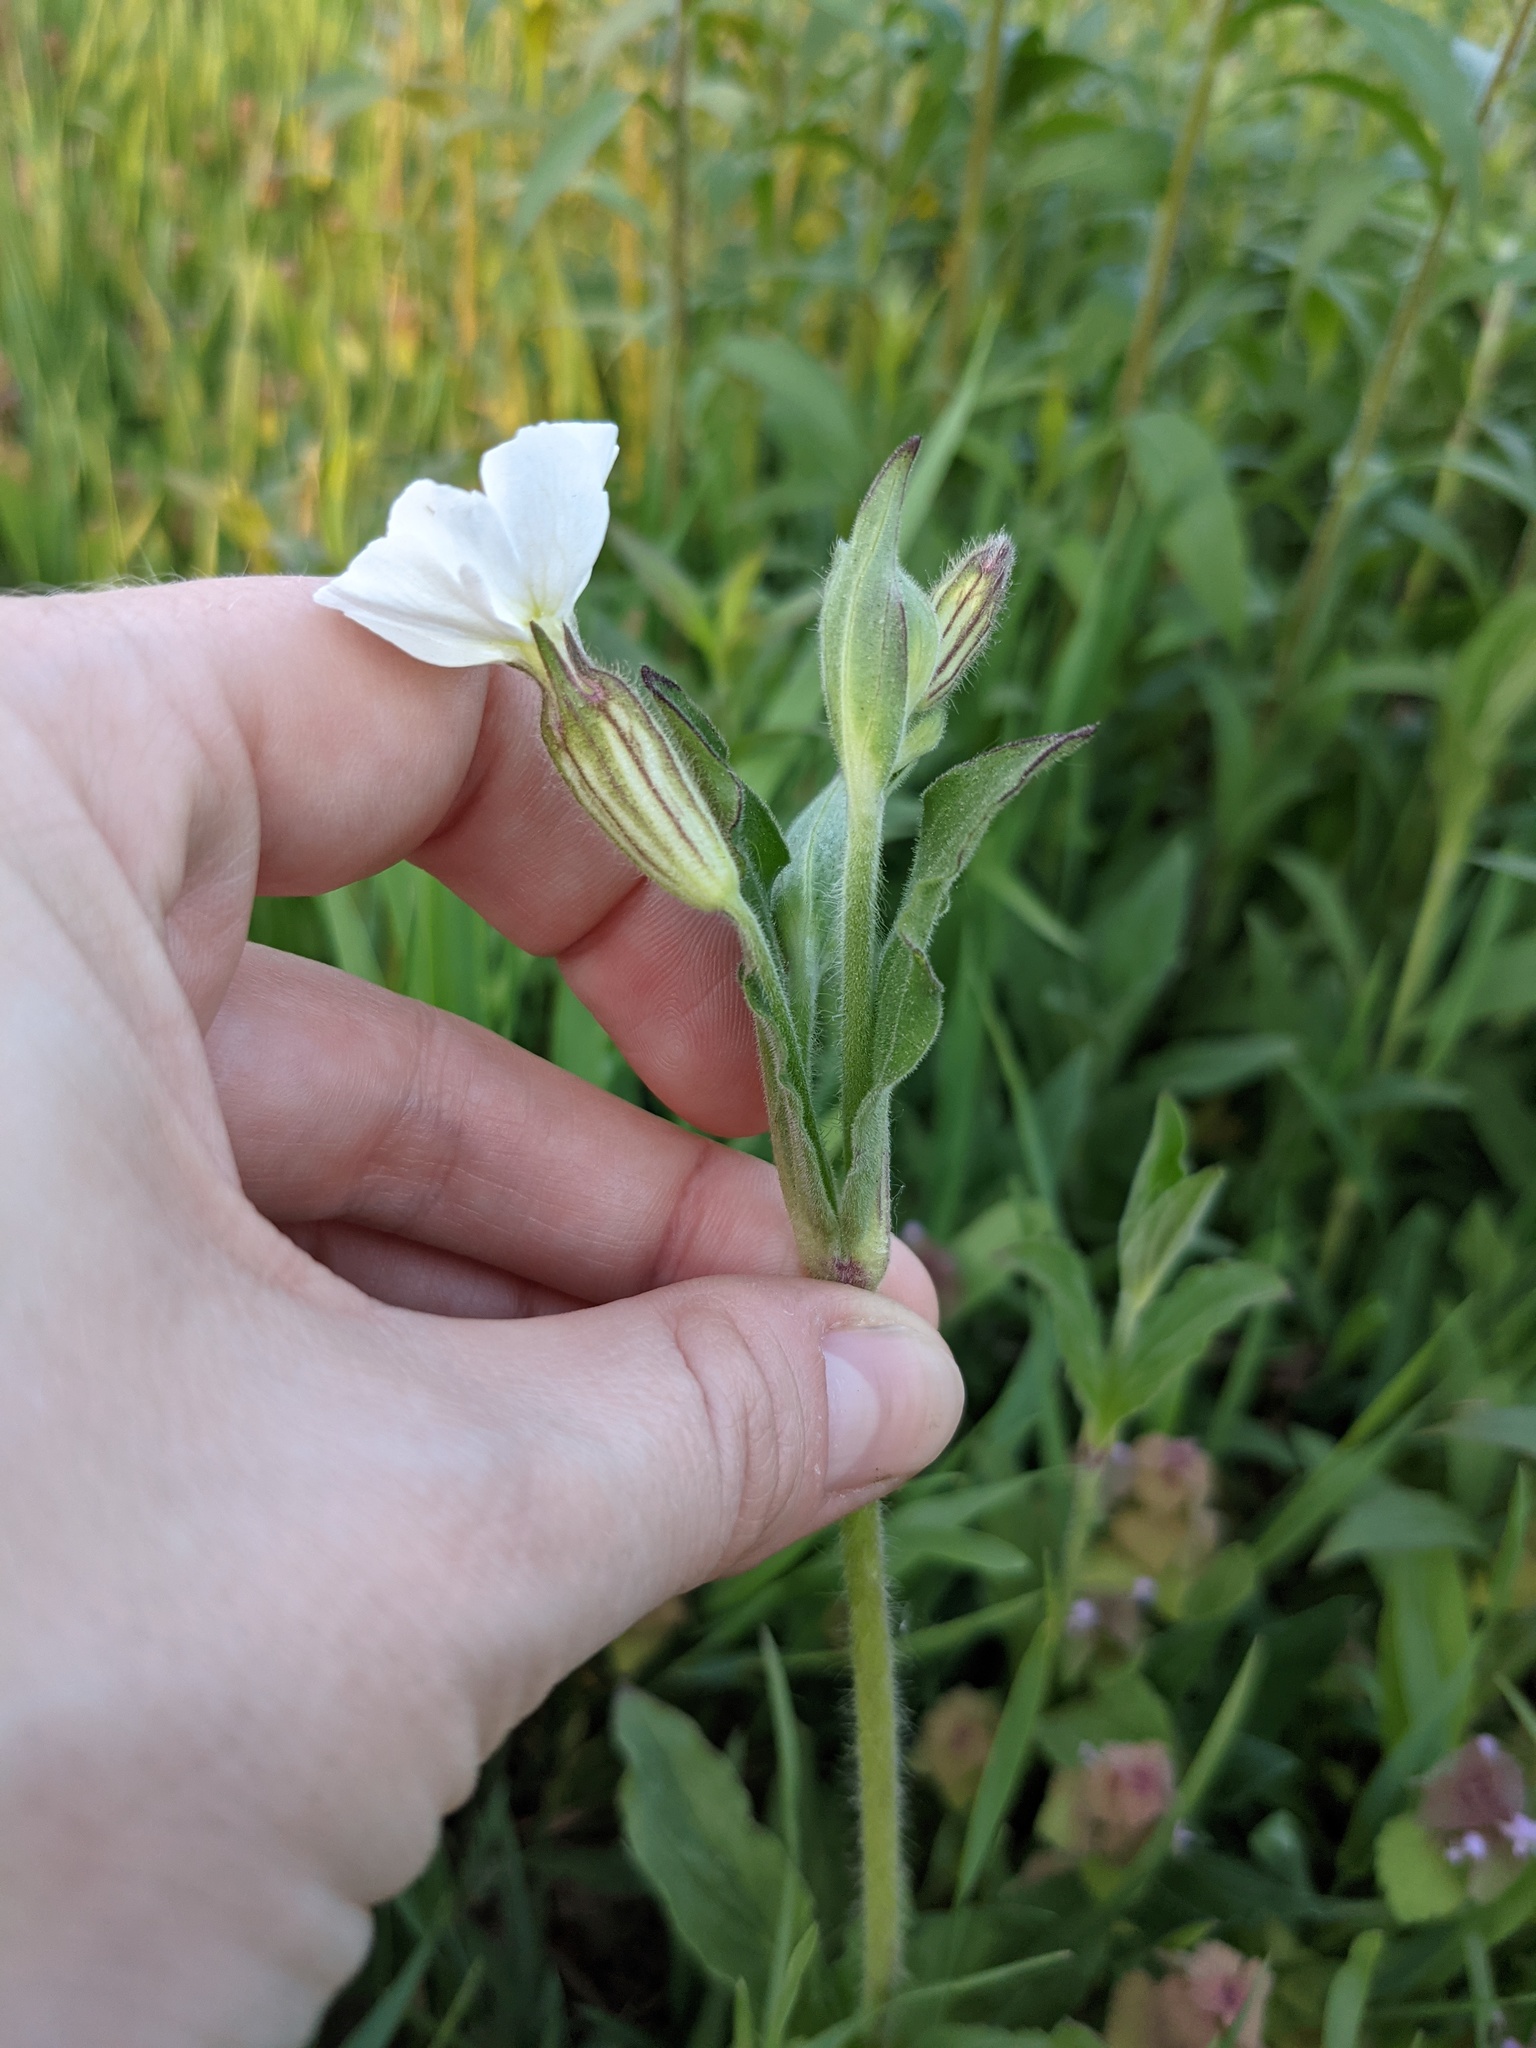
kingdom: Plantae
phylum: Tracheophyta
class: Magnoliopsida
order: Caryophyllales
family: Caryophyllaceae
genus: Silene
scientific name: Silene latifolia
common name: White campion
